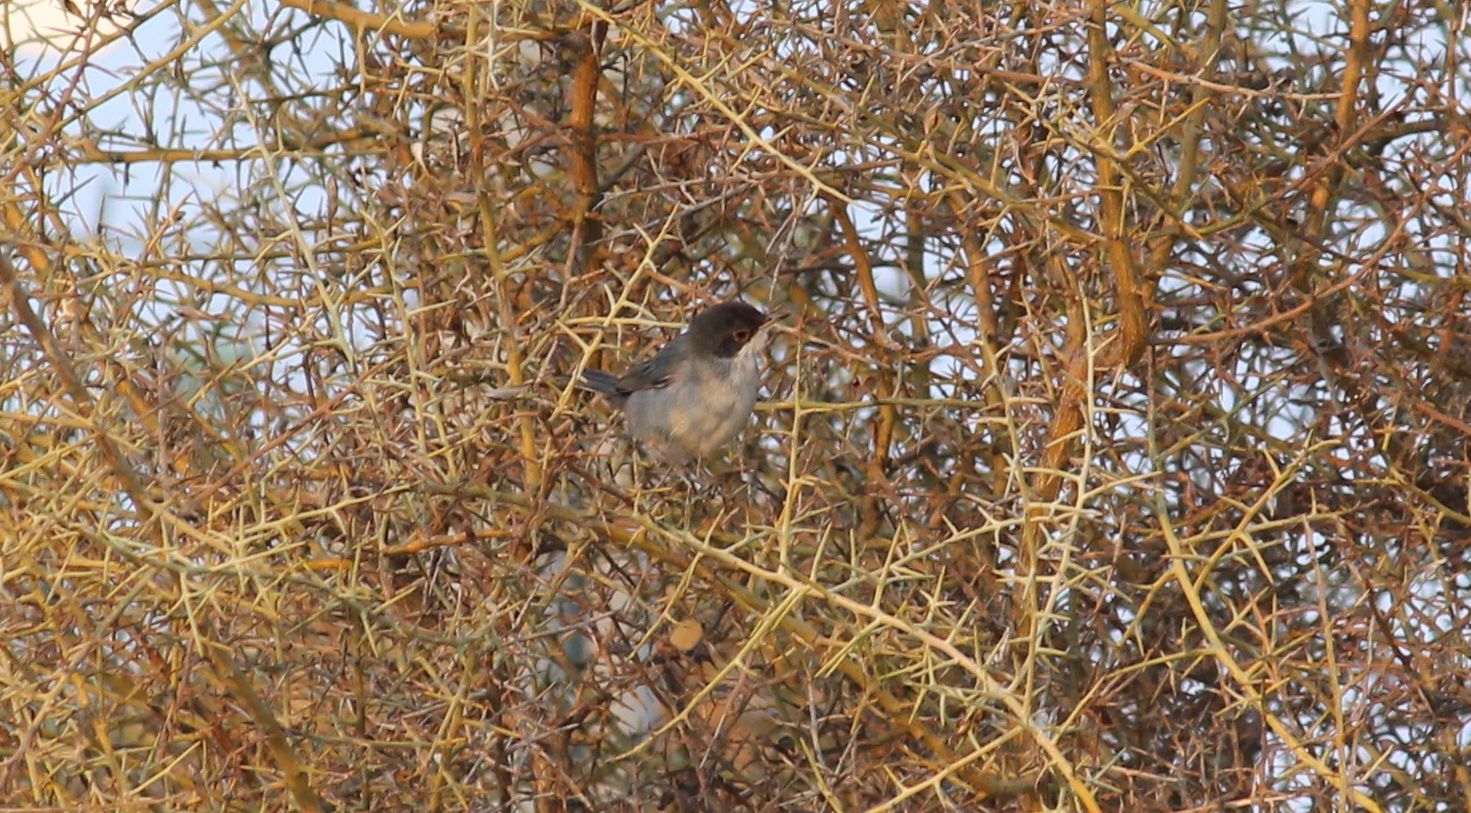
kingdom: Animalia
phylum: Chordata
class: Aves
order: Passeriformes
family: Sylviidae
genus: Curruca
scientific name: Curruca melanocephala
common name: Sardinian warbler
